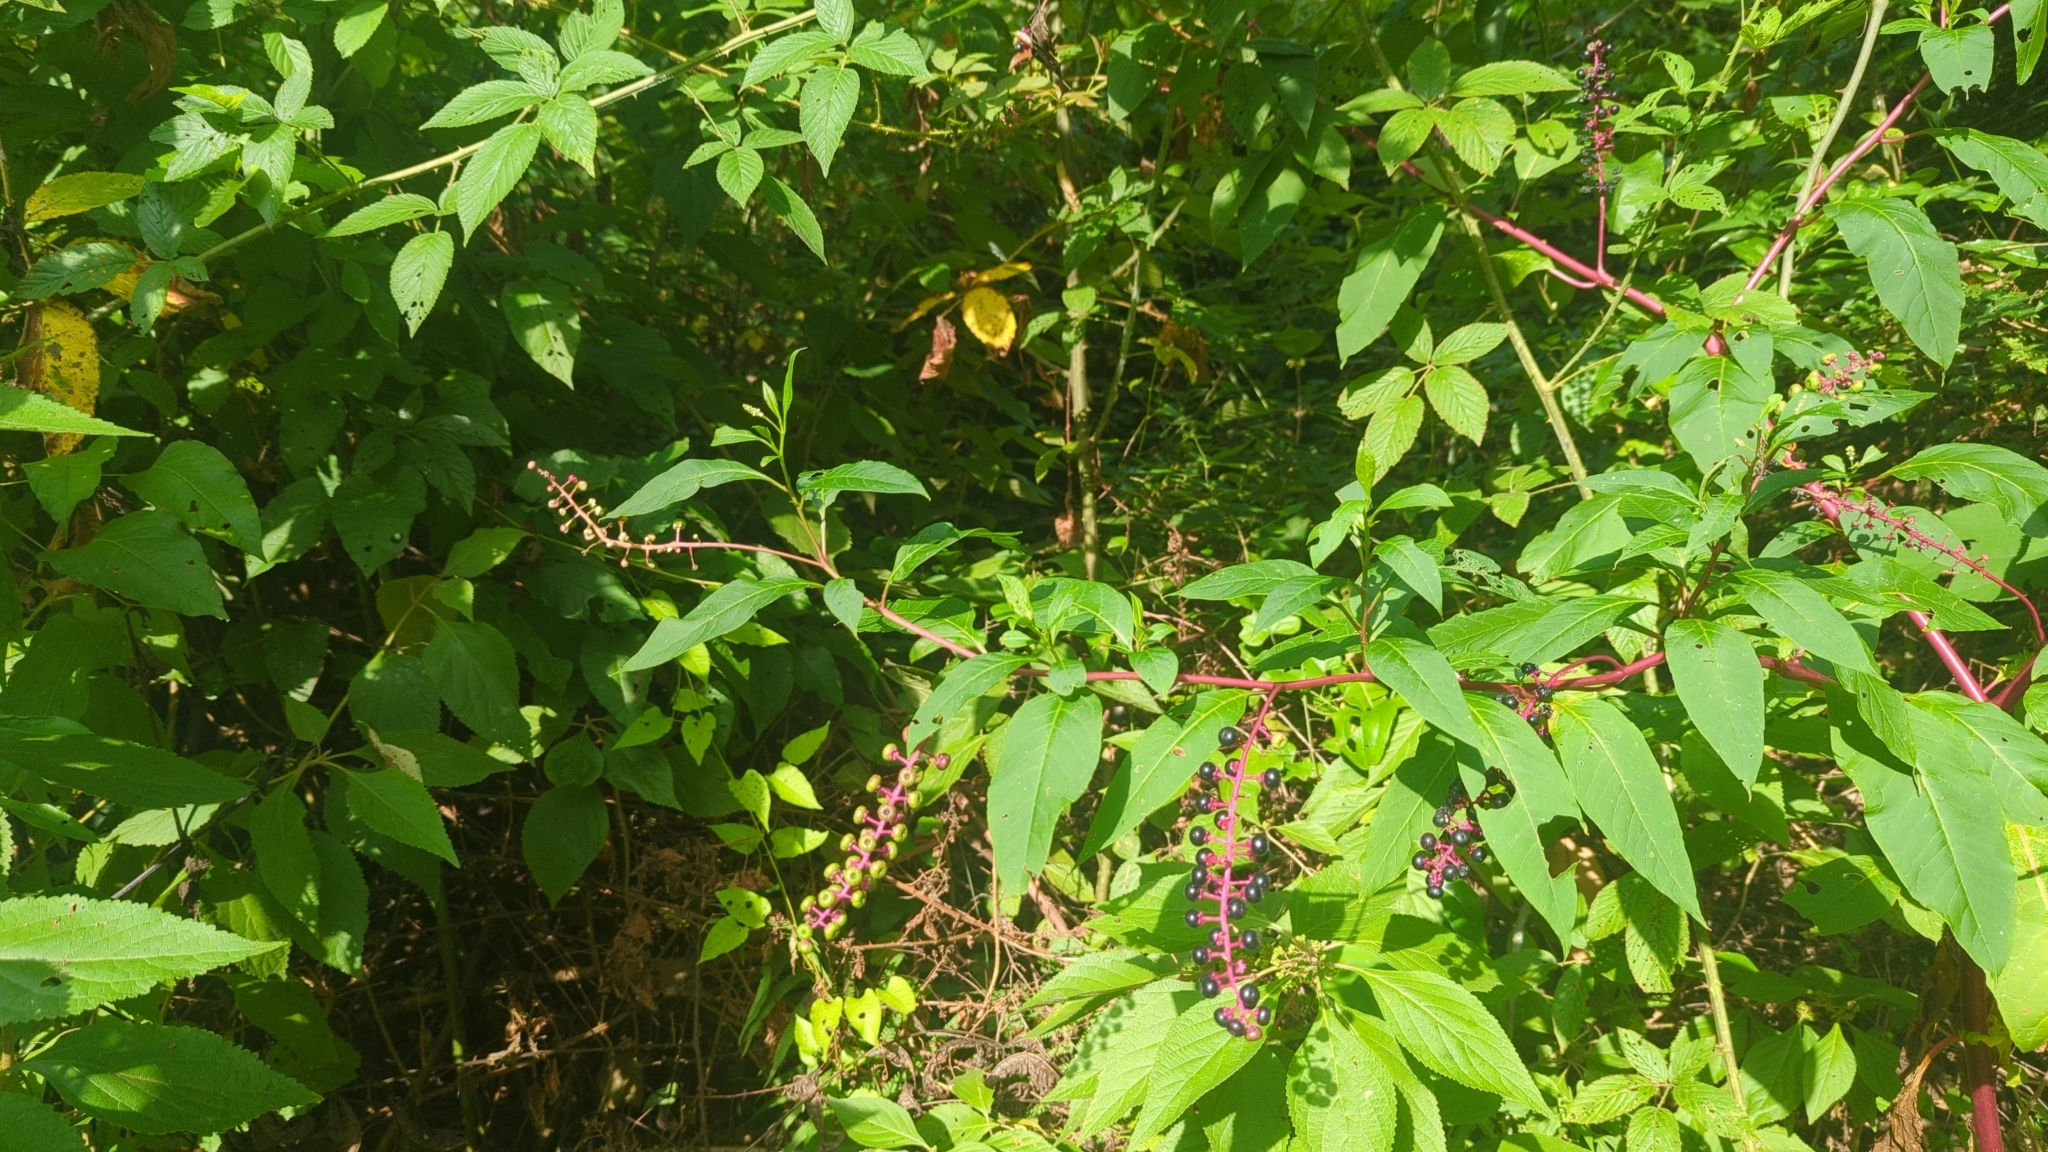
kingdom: Plantae
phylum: Tracheophyta
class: Magnoliopsida
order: Caryophyllales
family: Phytolaccaceae
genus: Phytolacca
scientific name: Phytolacca americana
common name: American pokeweed
